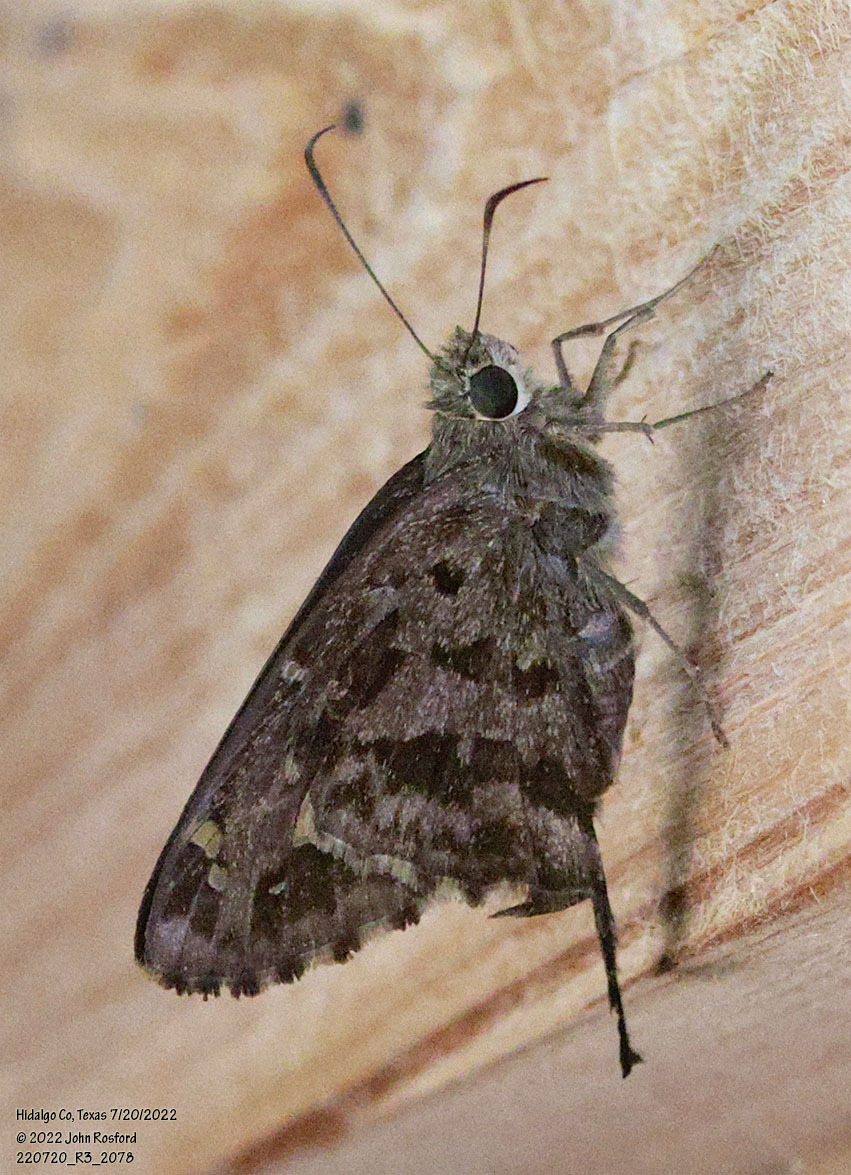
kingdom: Animalia
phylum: Arthropoda
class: Insecta
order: Lepidoptera
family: Hesperiidae
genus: Thorybes
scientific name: Thorybes
